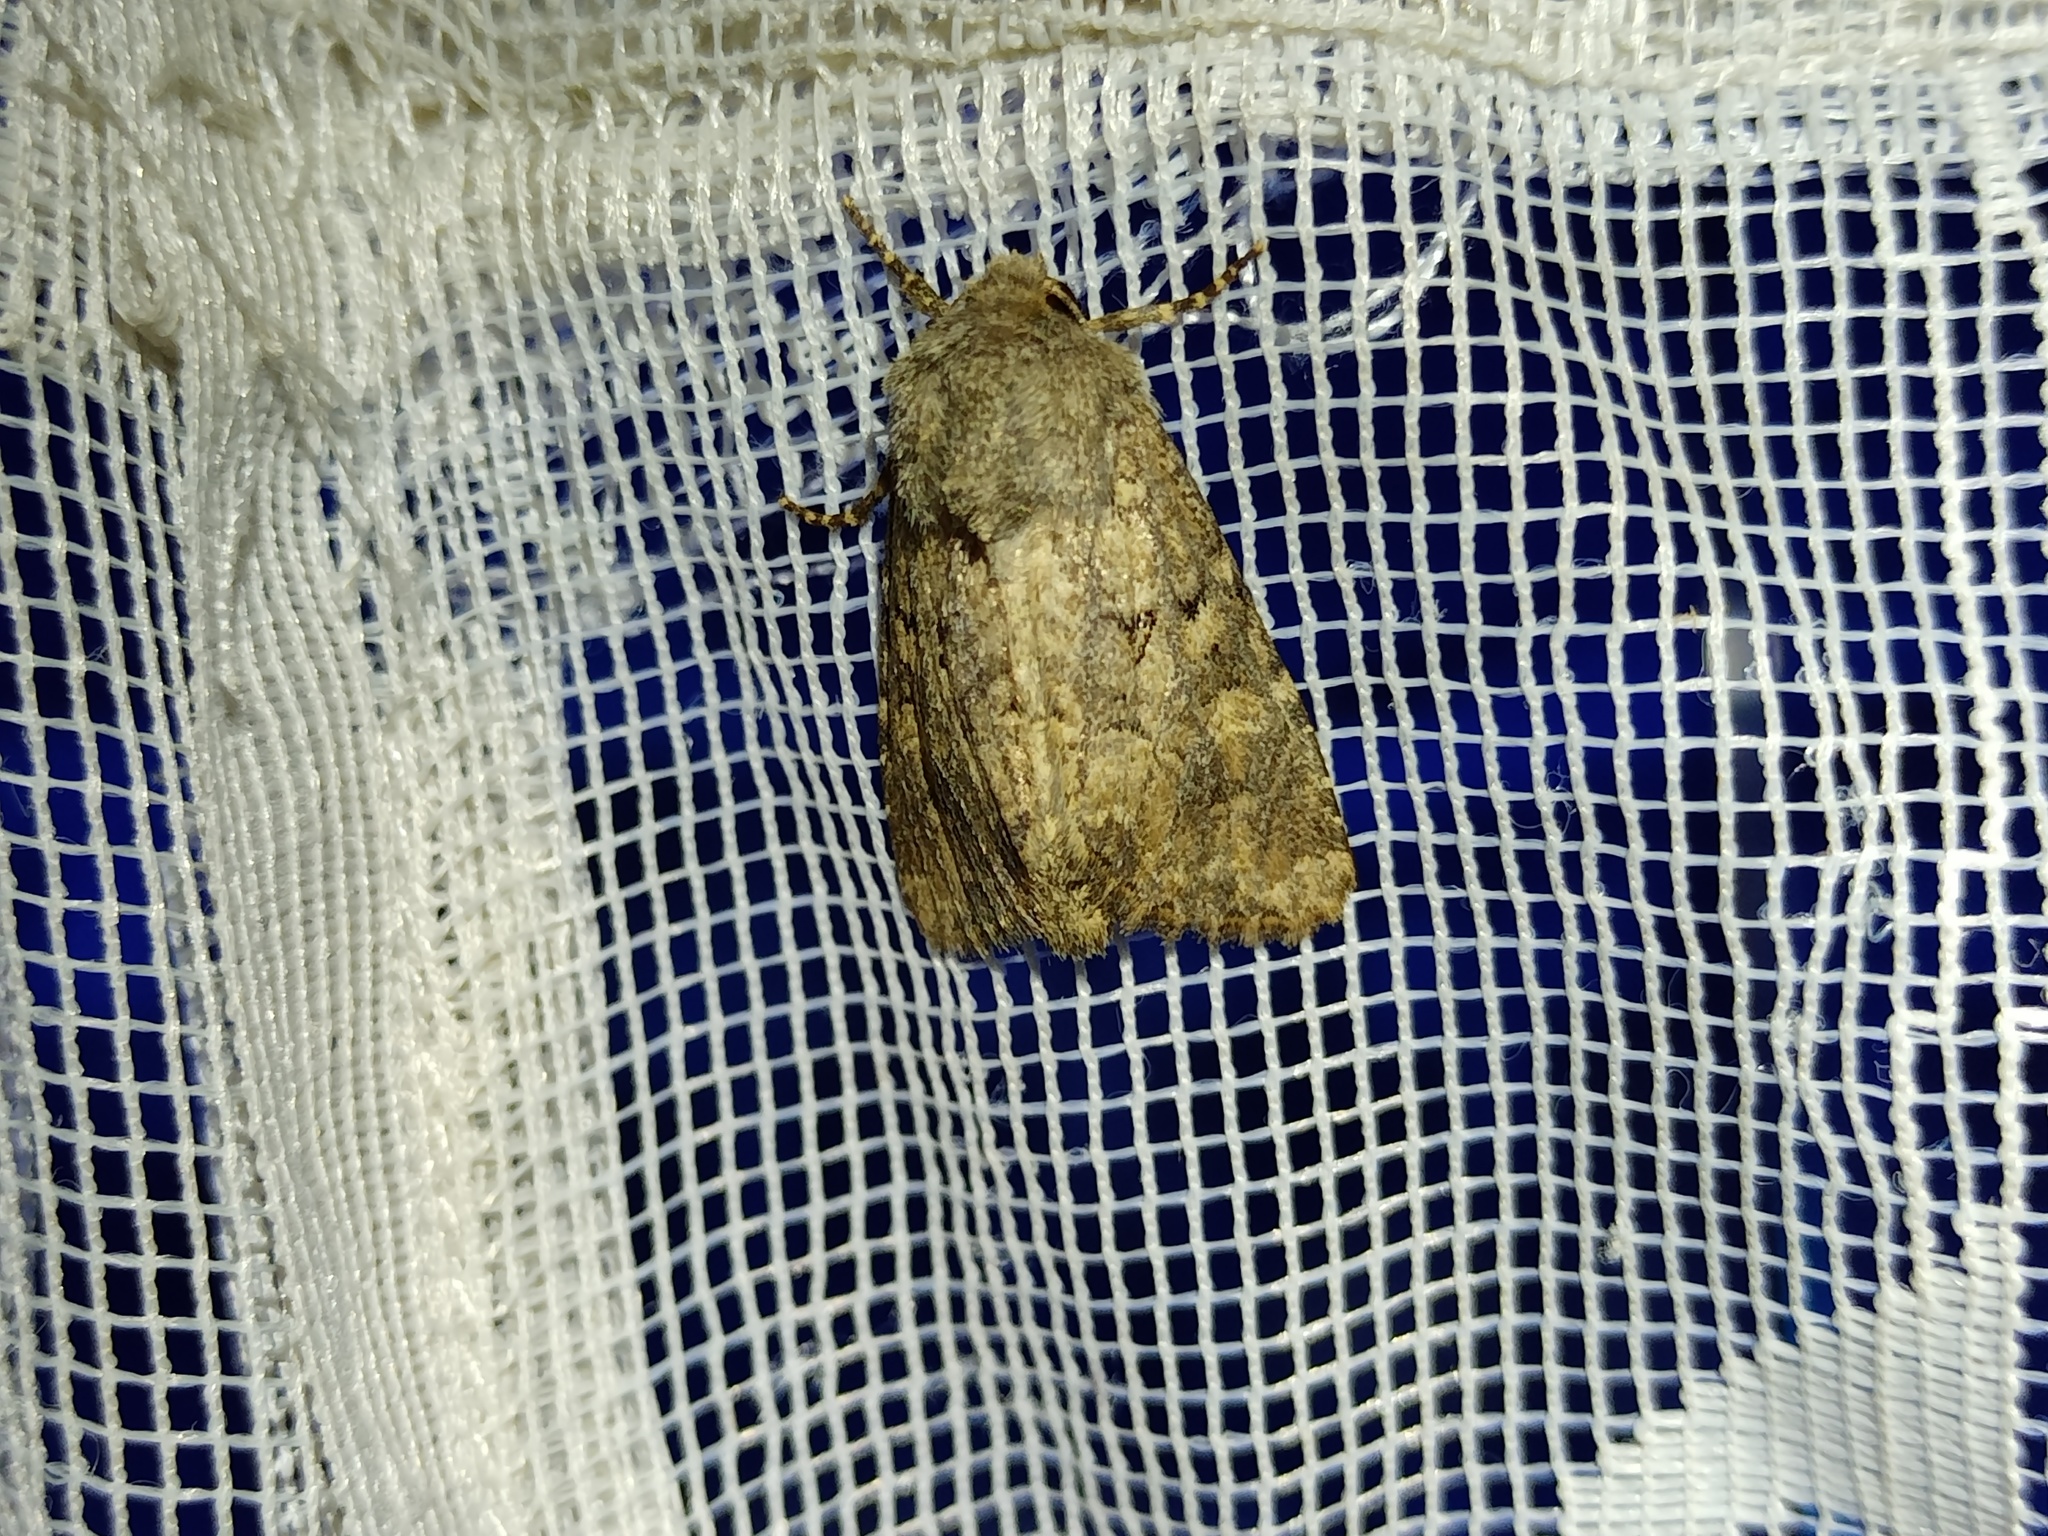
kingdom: Animalia
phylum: Arthropoda
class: Insecta
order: Lepidoptera
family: Noctuidae
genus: Luperina
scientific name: Luperina testacea
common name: Flounced rustic
